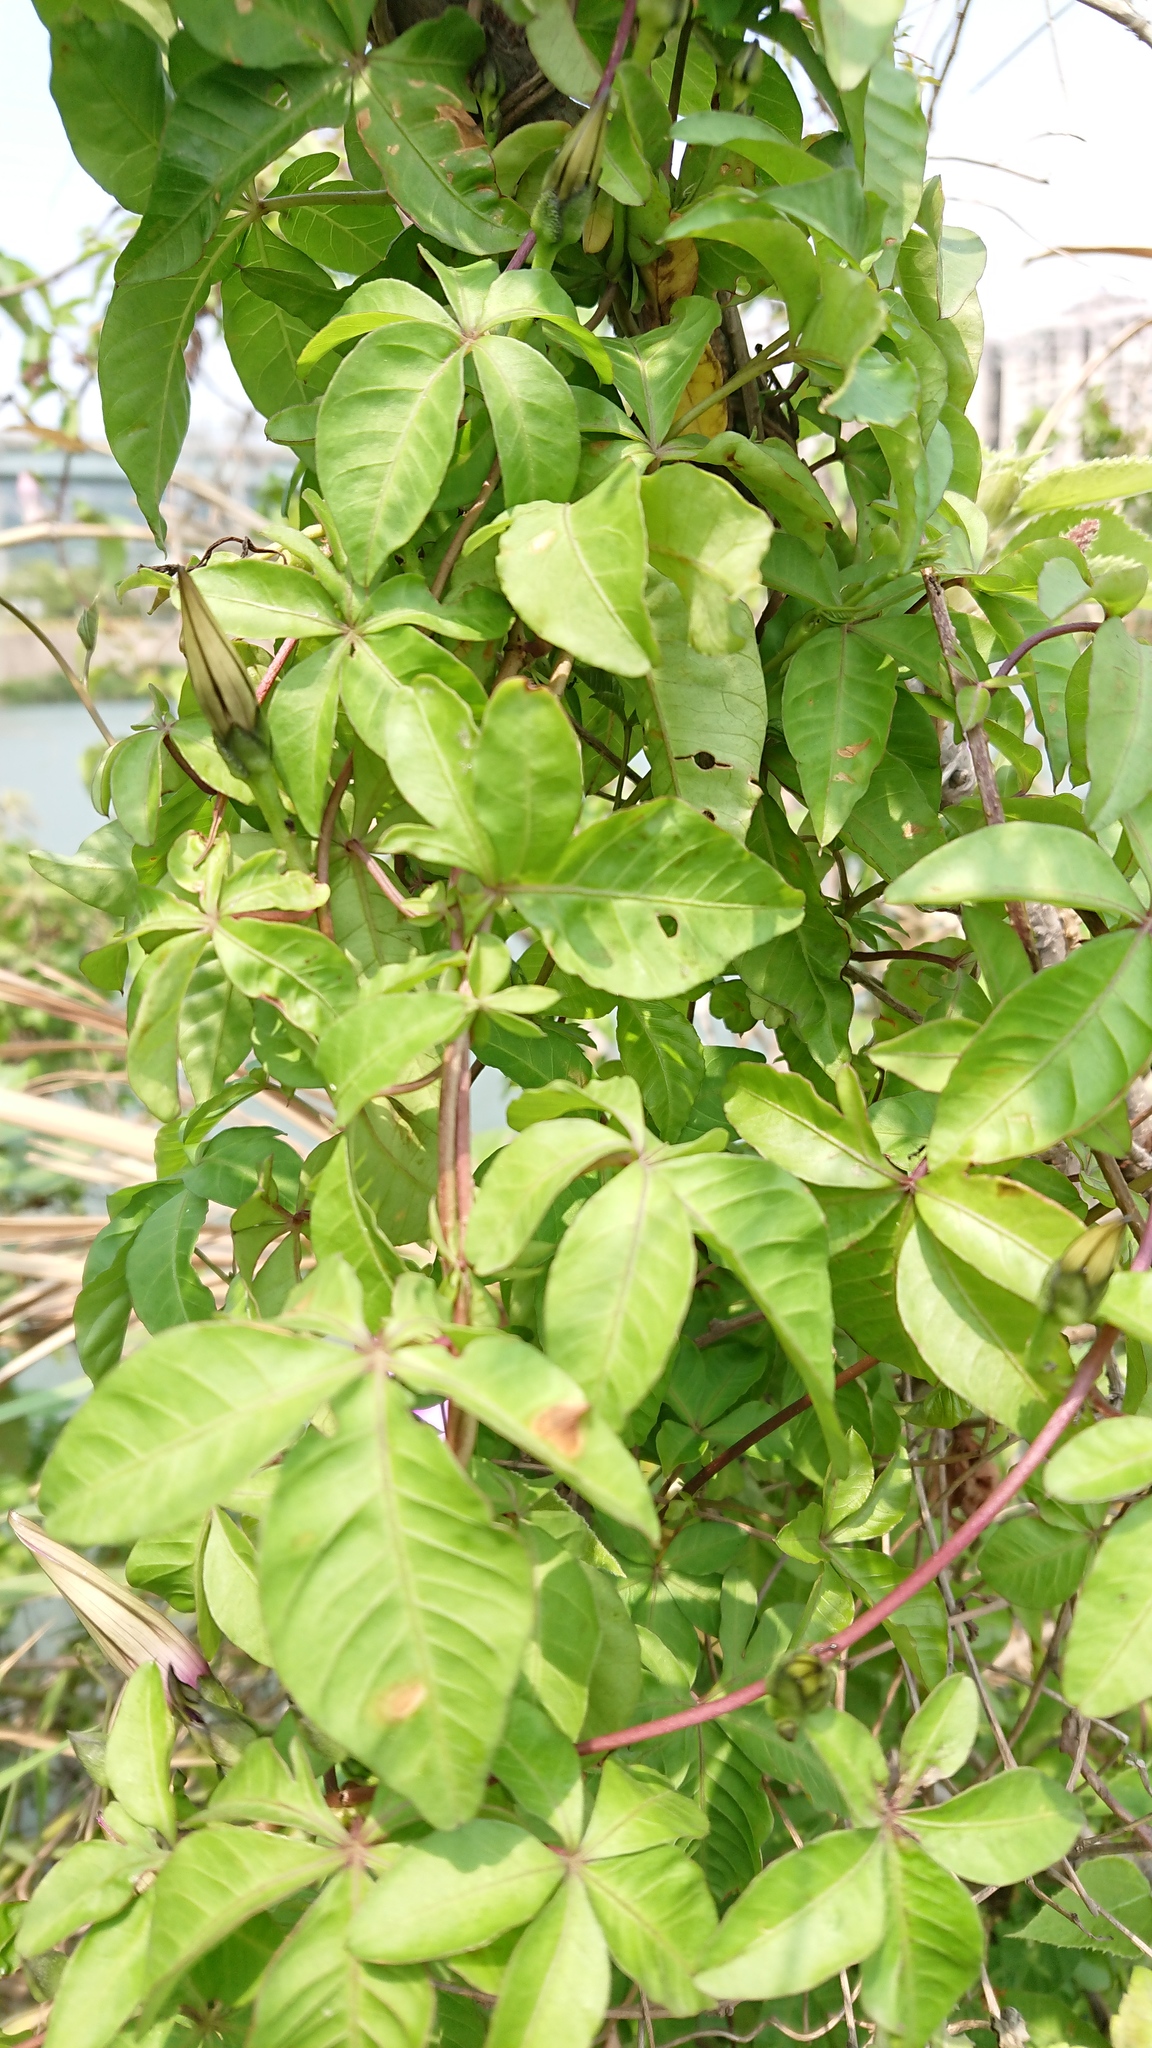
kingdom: Plantae
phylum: Tracheophyta
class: Magnoliopsida
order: Solanales
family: Convolvulaceae
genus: Ipomoea
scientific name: Ipomoea cairica
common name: Mile a minute vine
